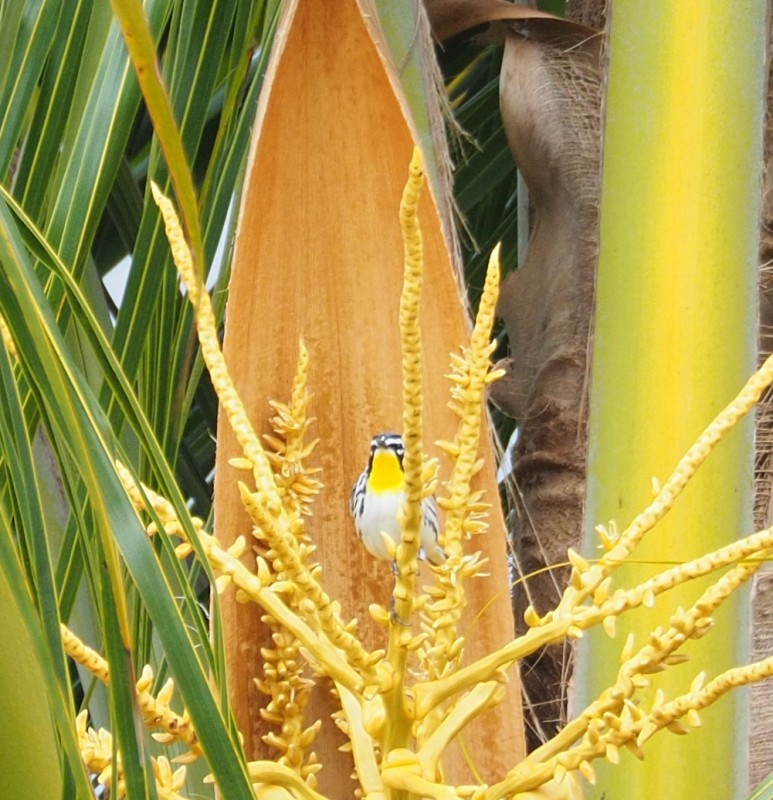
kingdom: Animalia
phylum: Chordata
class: Aves
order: Passeriformes
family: Parulidae
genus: Setophaga
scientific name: Setophaga dominica
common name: Yellow-throated warbler
